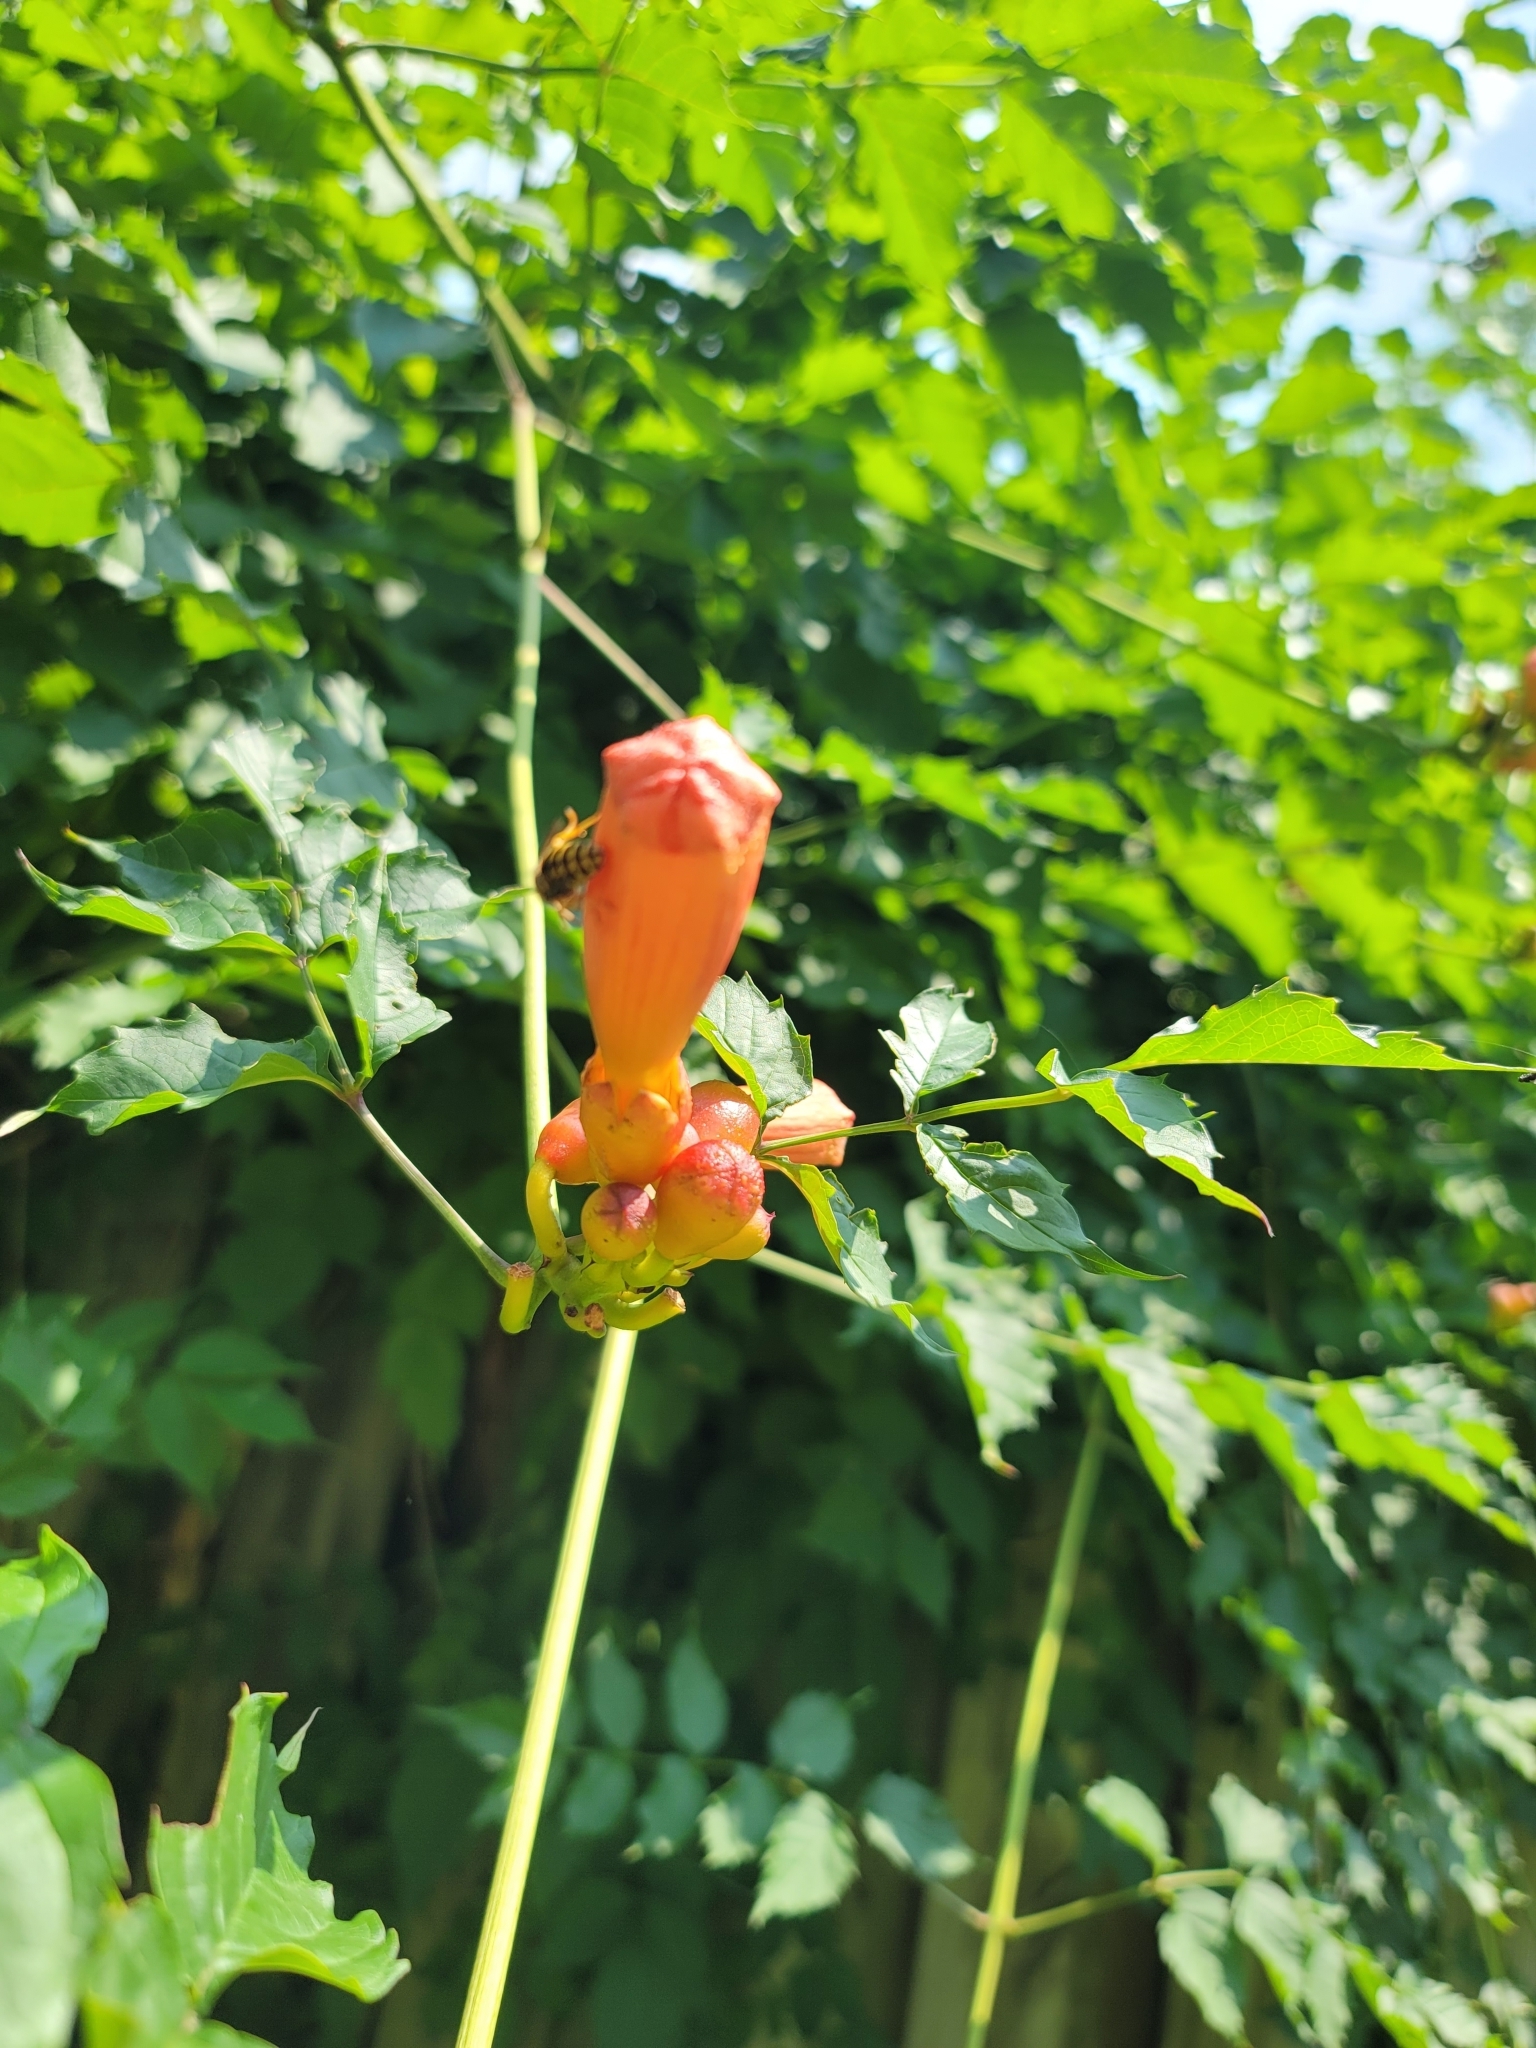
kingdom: Plantae
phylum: Tracheophyta
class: Magnoliopsida
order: Lamiales
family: Bignoniaceae
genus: Campsis
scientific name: Campsis radicans
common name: Trumpet-creeper
